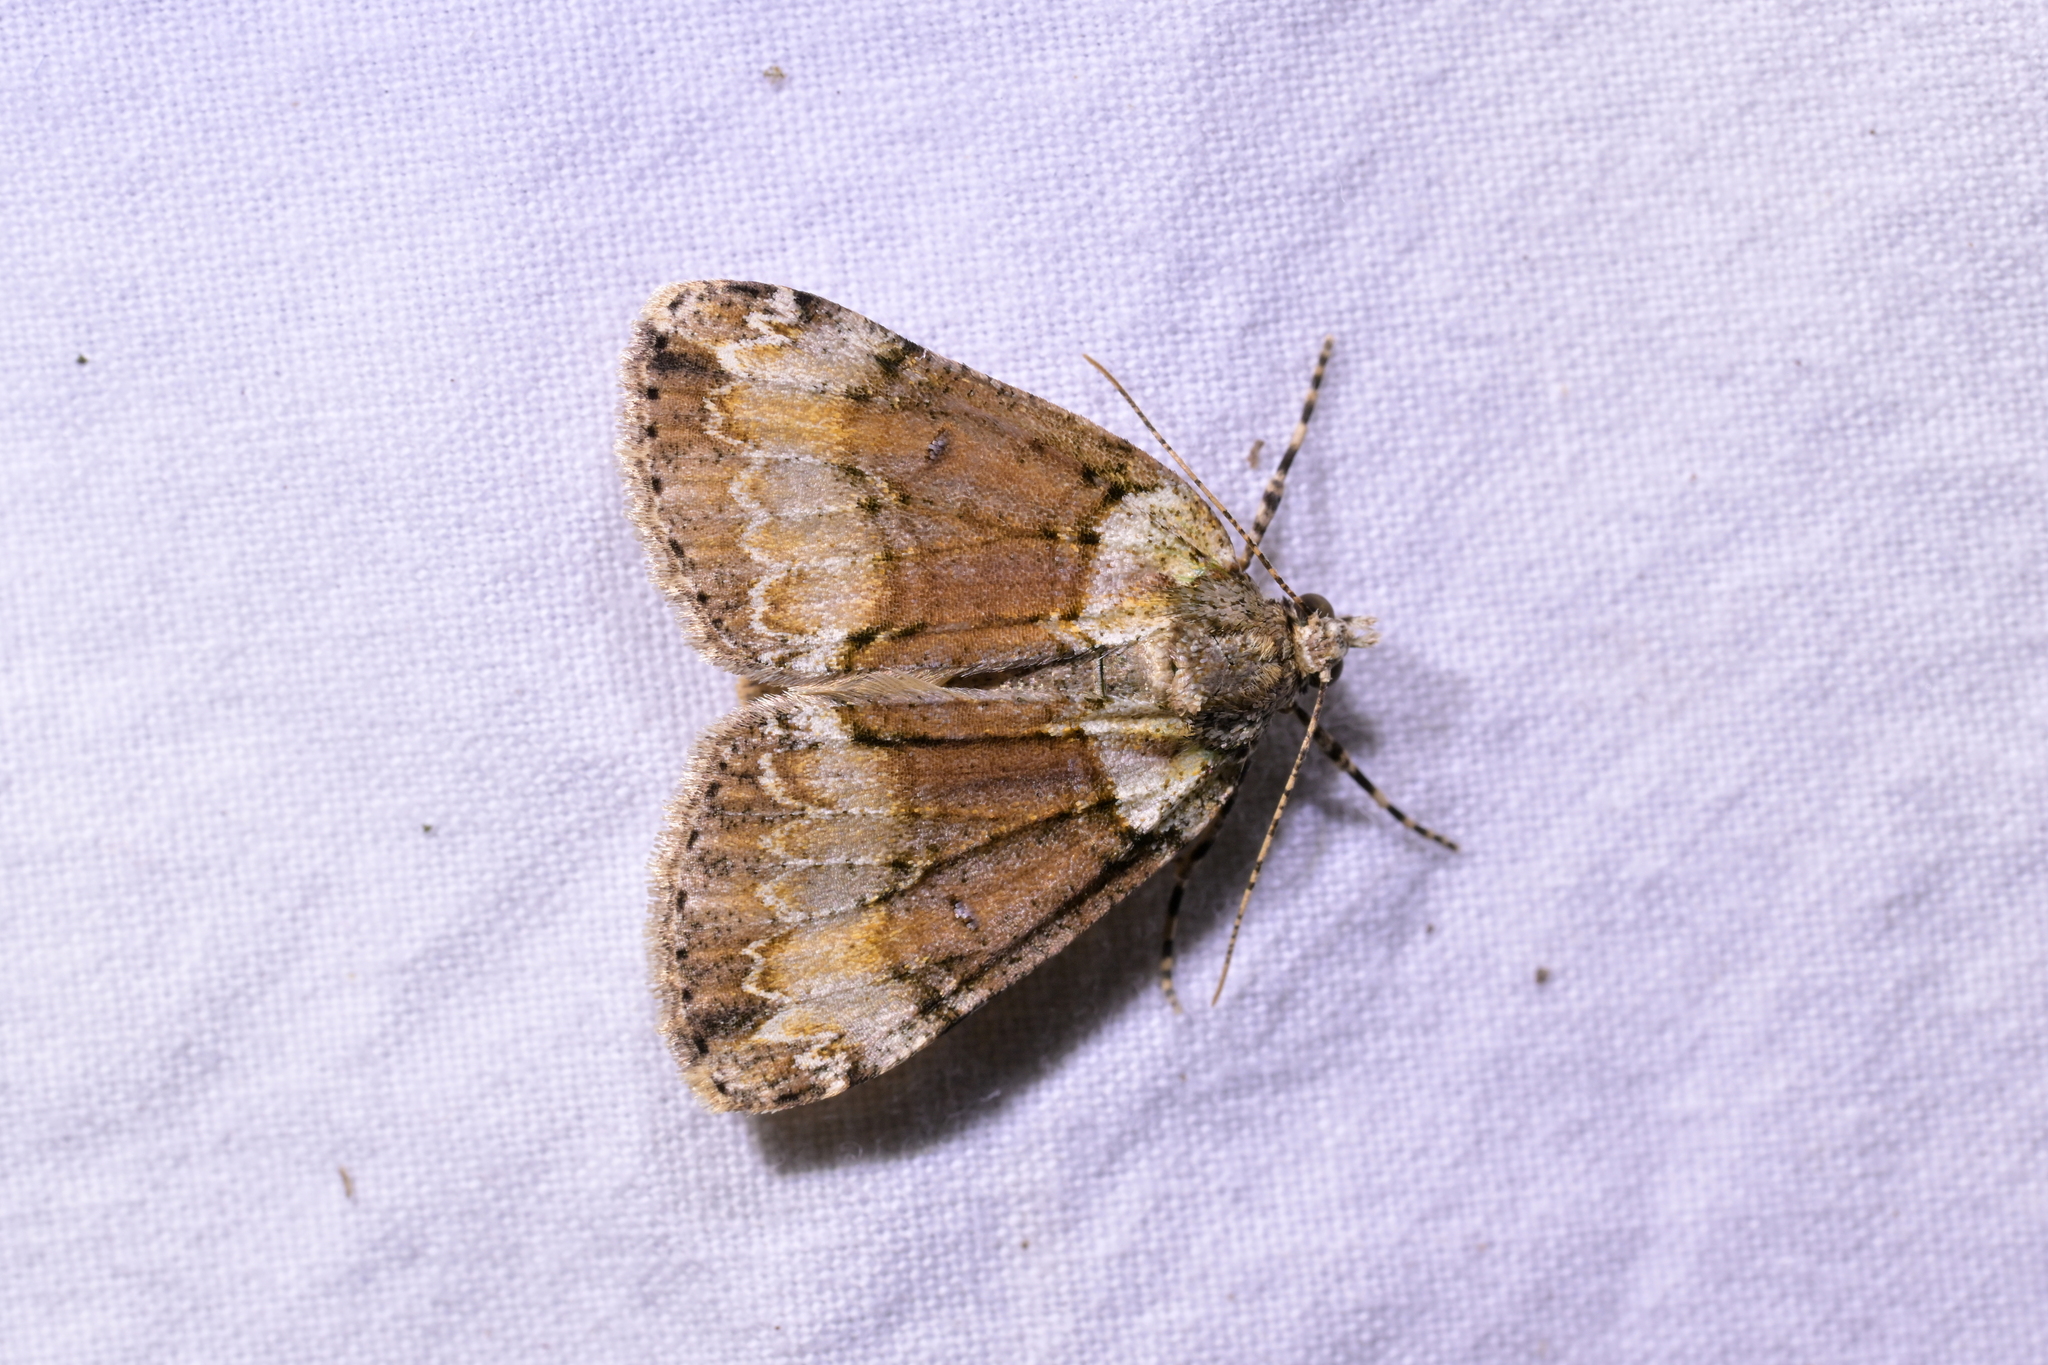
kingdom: Animalia
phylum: Arthropoda
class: Insecta
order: Lepidoptera
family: Geometridae
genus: Pseudocoremia
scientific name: Pseudocoremia suavis
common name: Common forest looper
